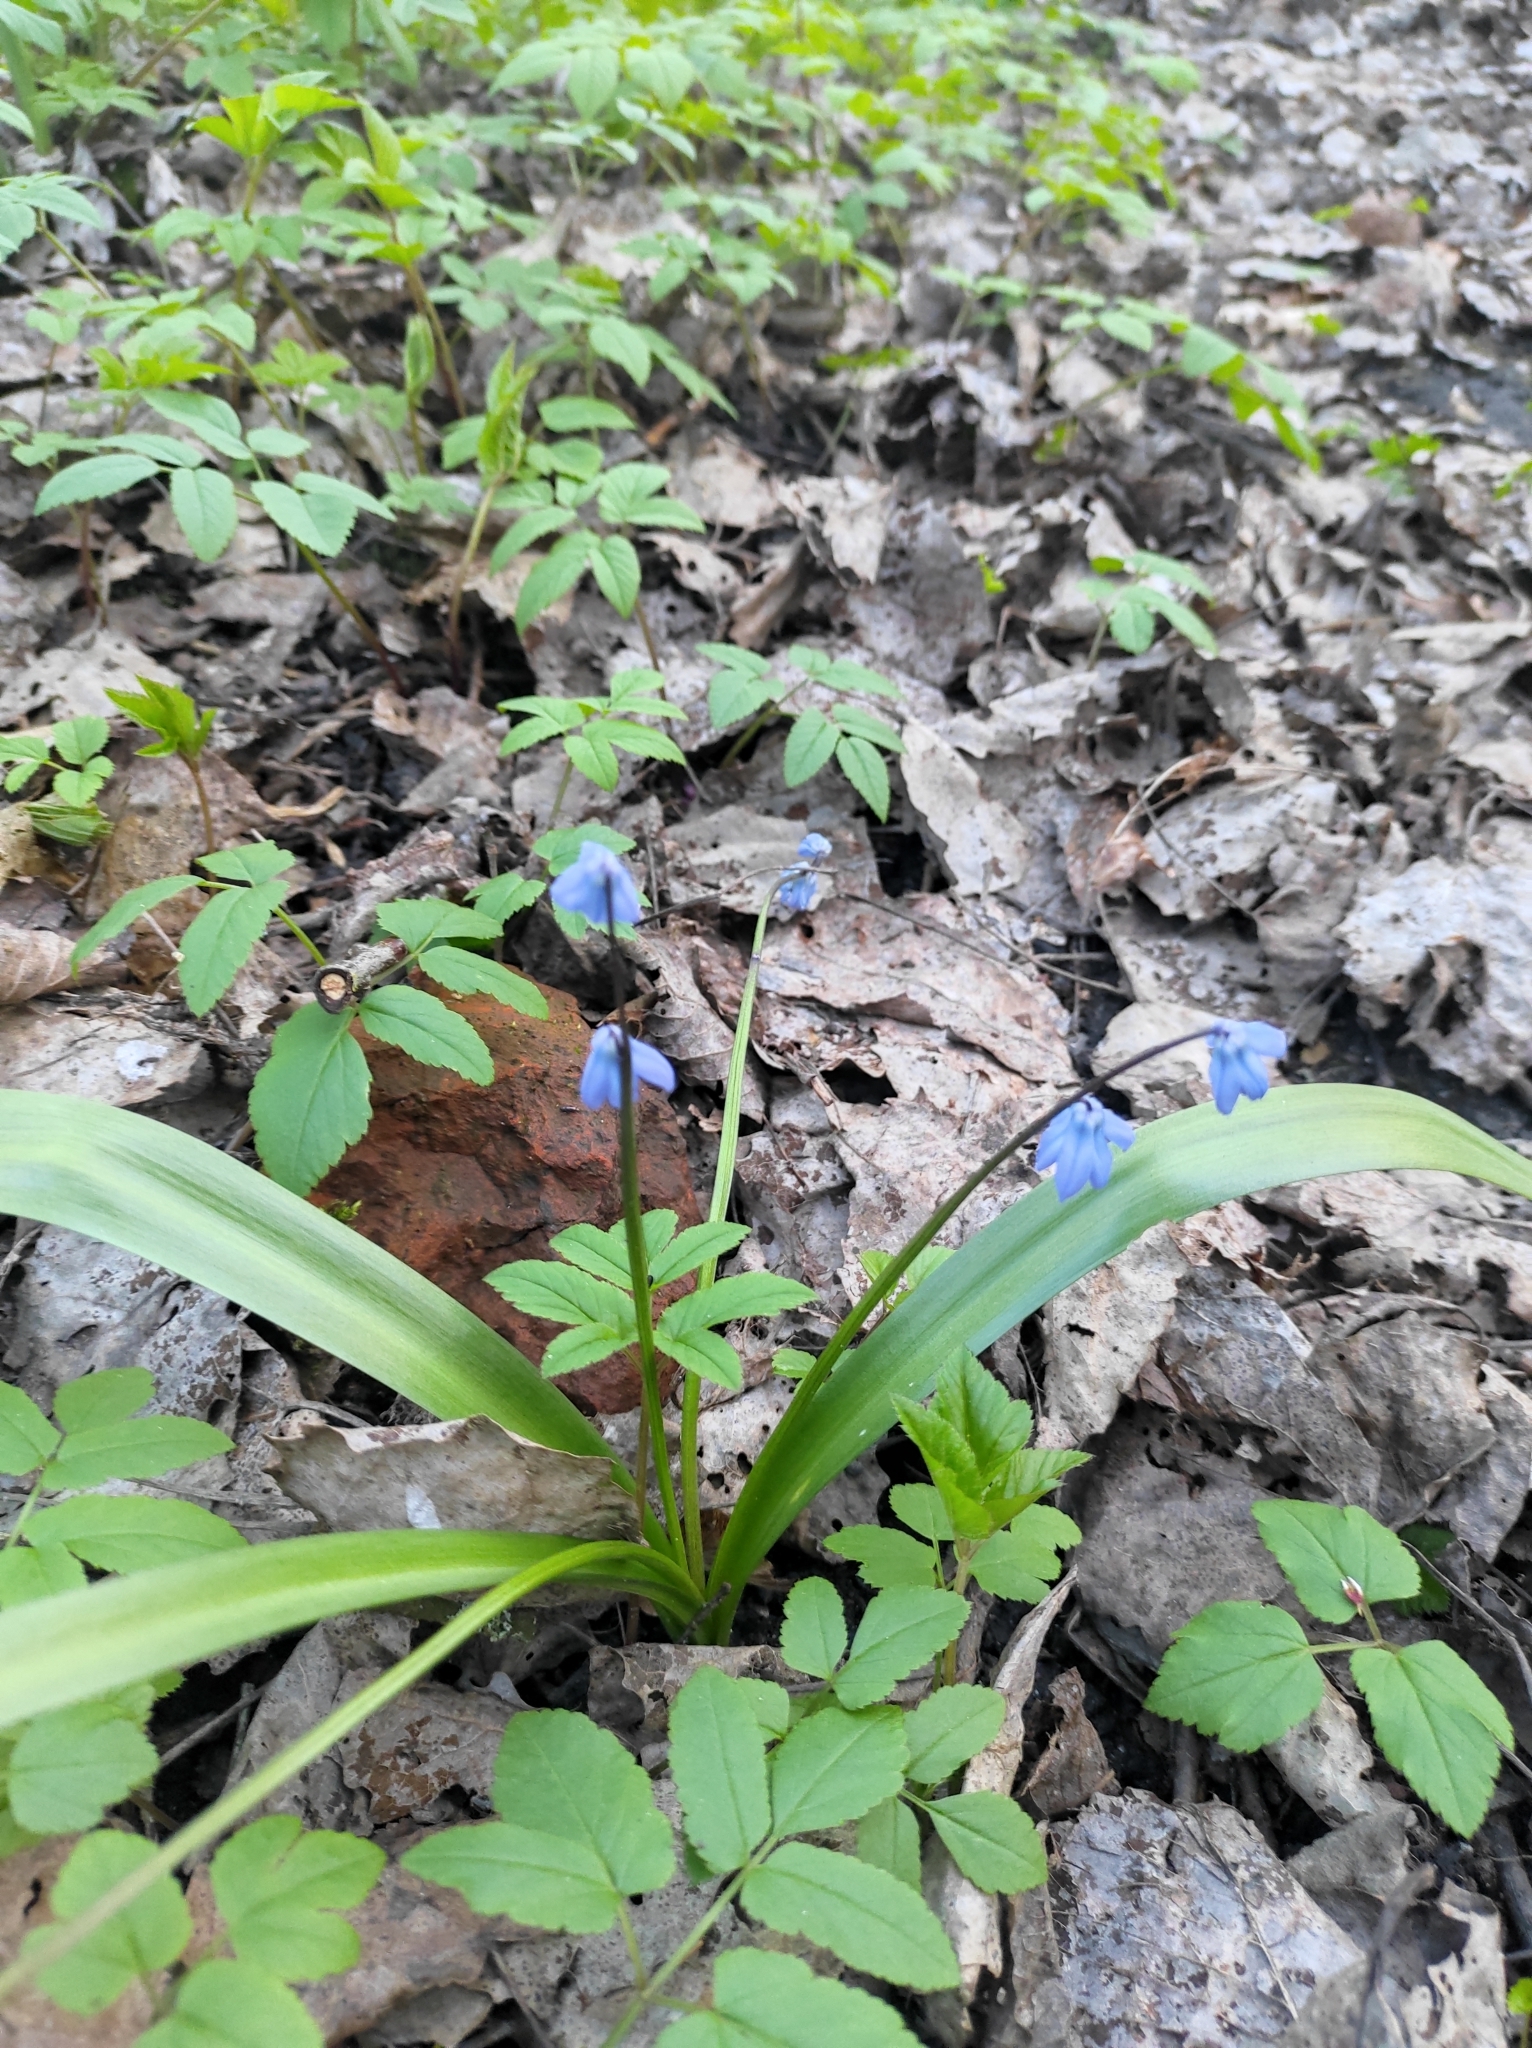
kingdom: Plantae
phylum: Tracheophyta
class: Liliopsida
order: Asparagales
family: Asparagaceae
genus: Scilla
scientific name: Scilla siberica
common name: Siberian squill
